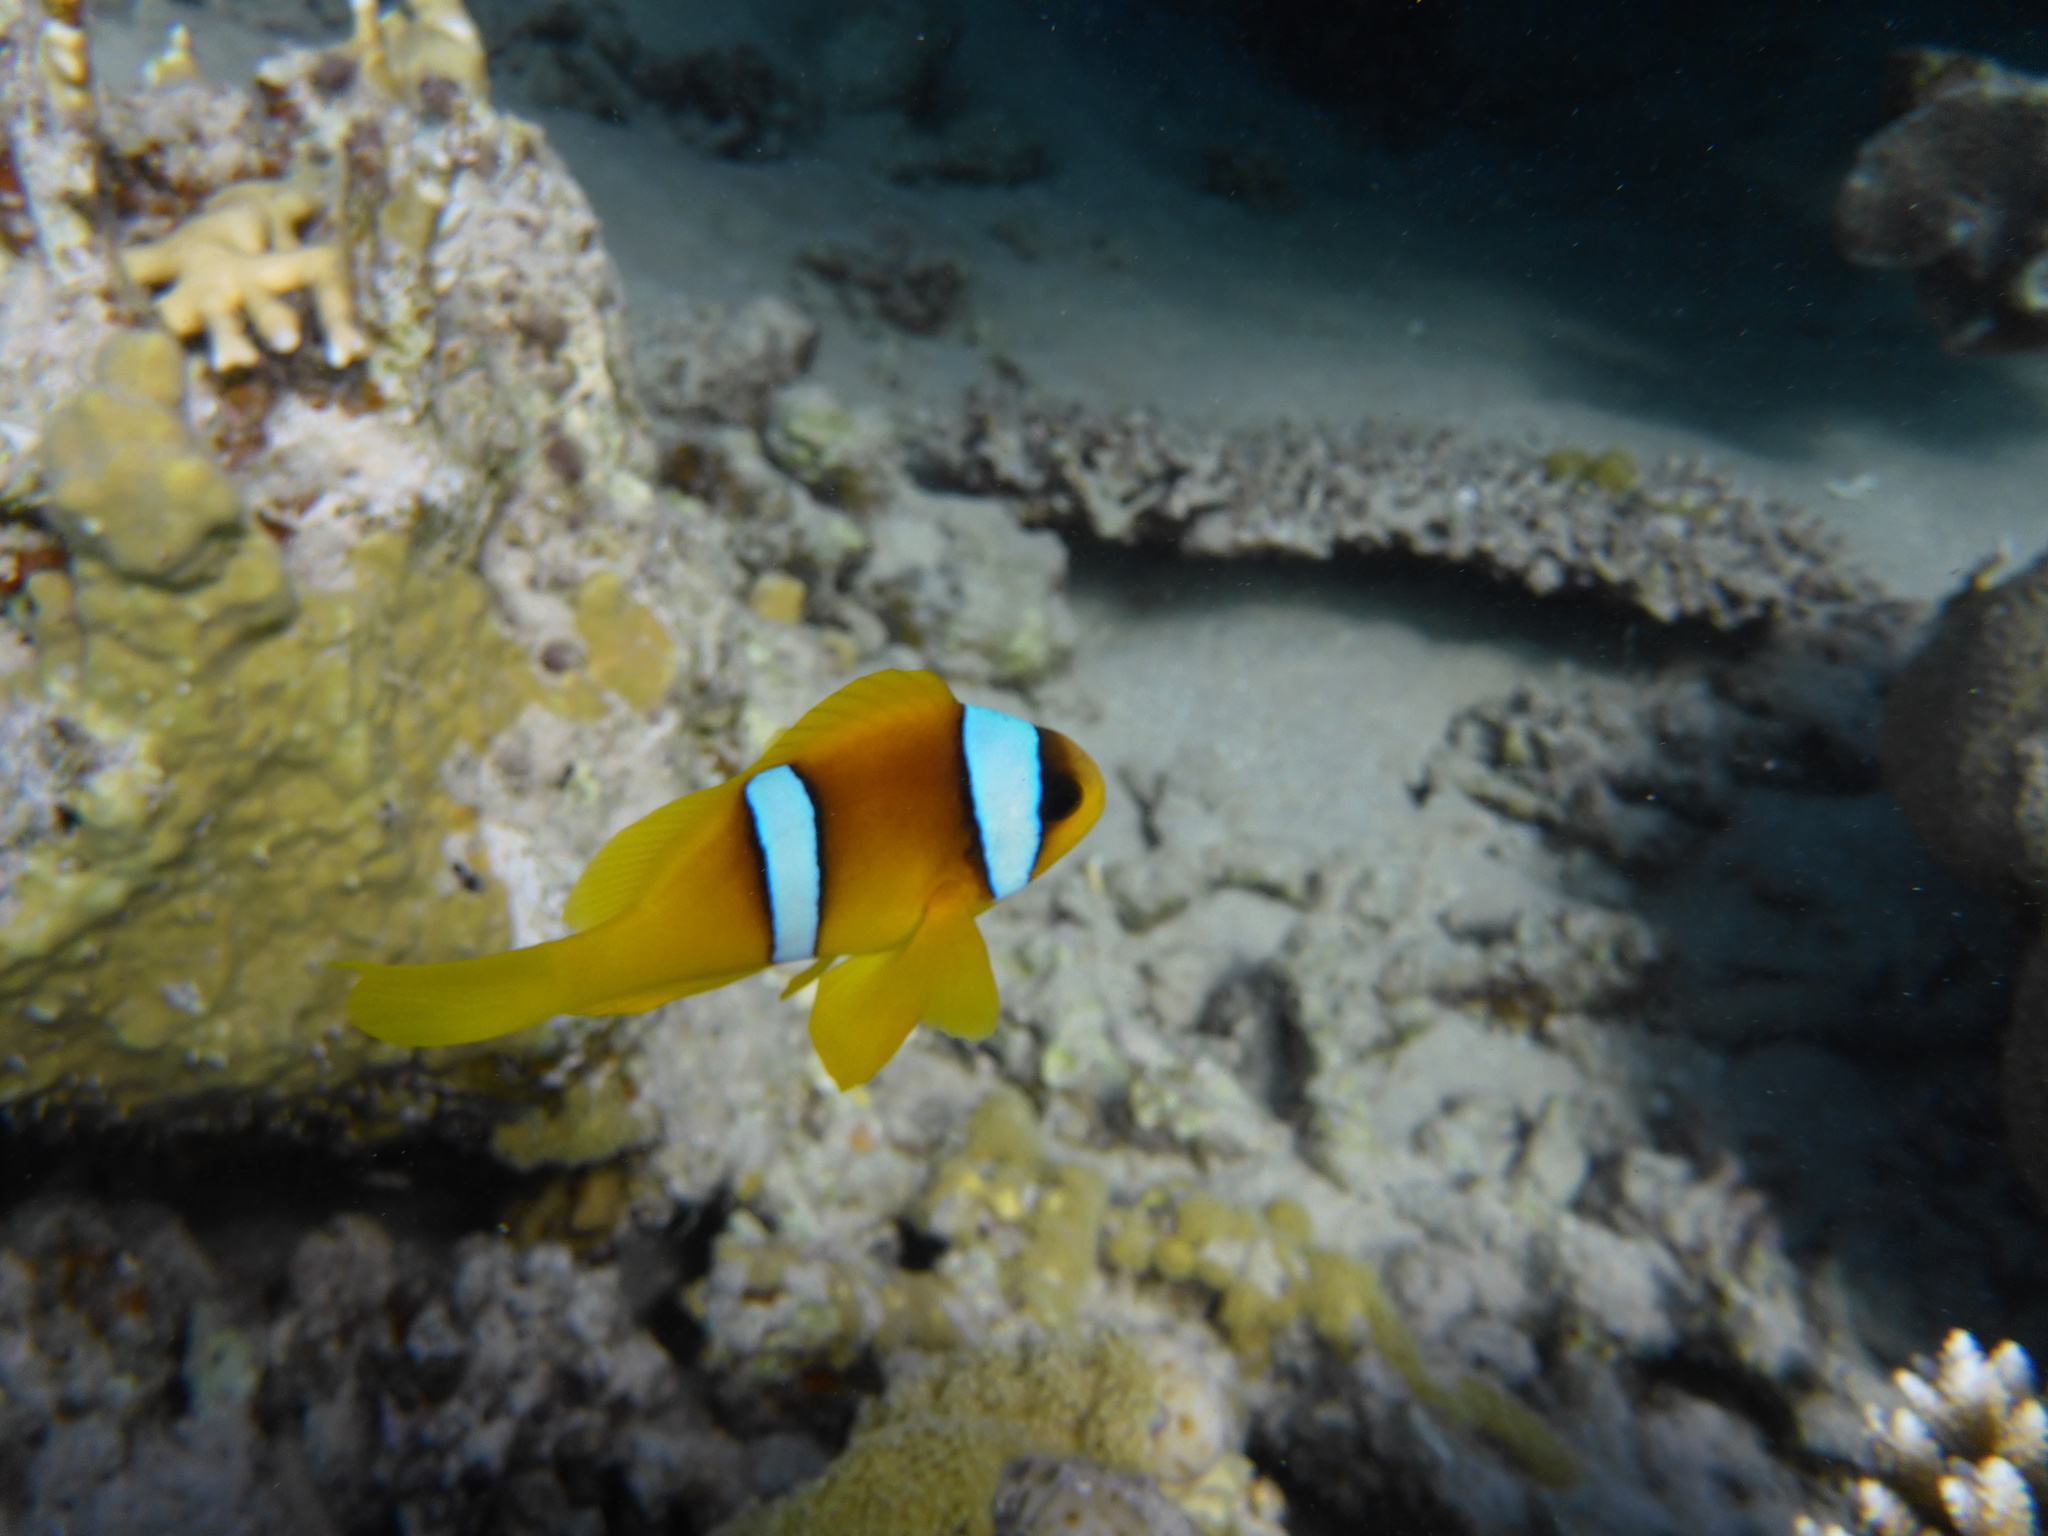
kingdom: Animalia
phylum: Chordata
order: Perciformes
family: Pomacentridae
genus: Amphiprion
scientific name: Amphiprion bicinctus
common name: Two-banded anemonefish
